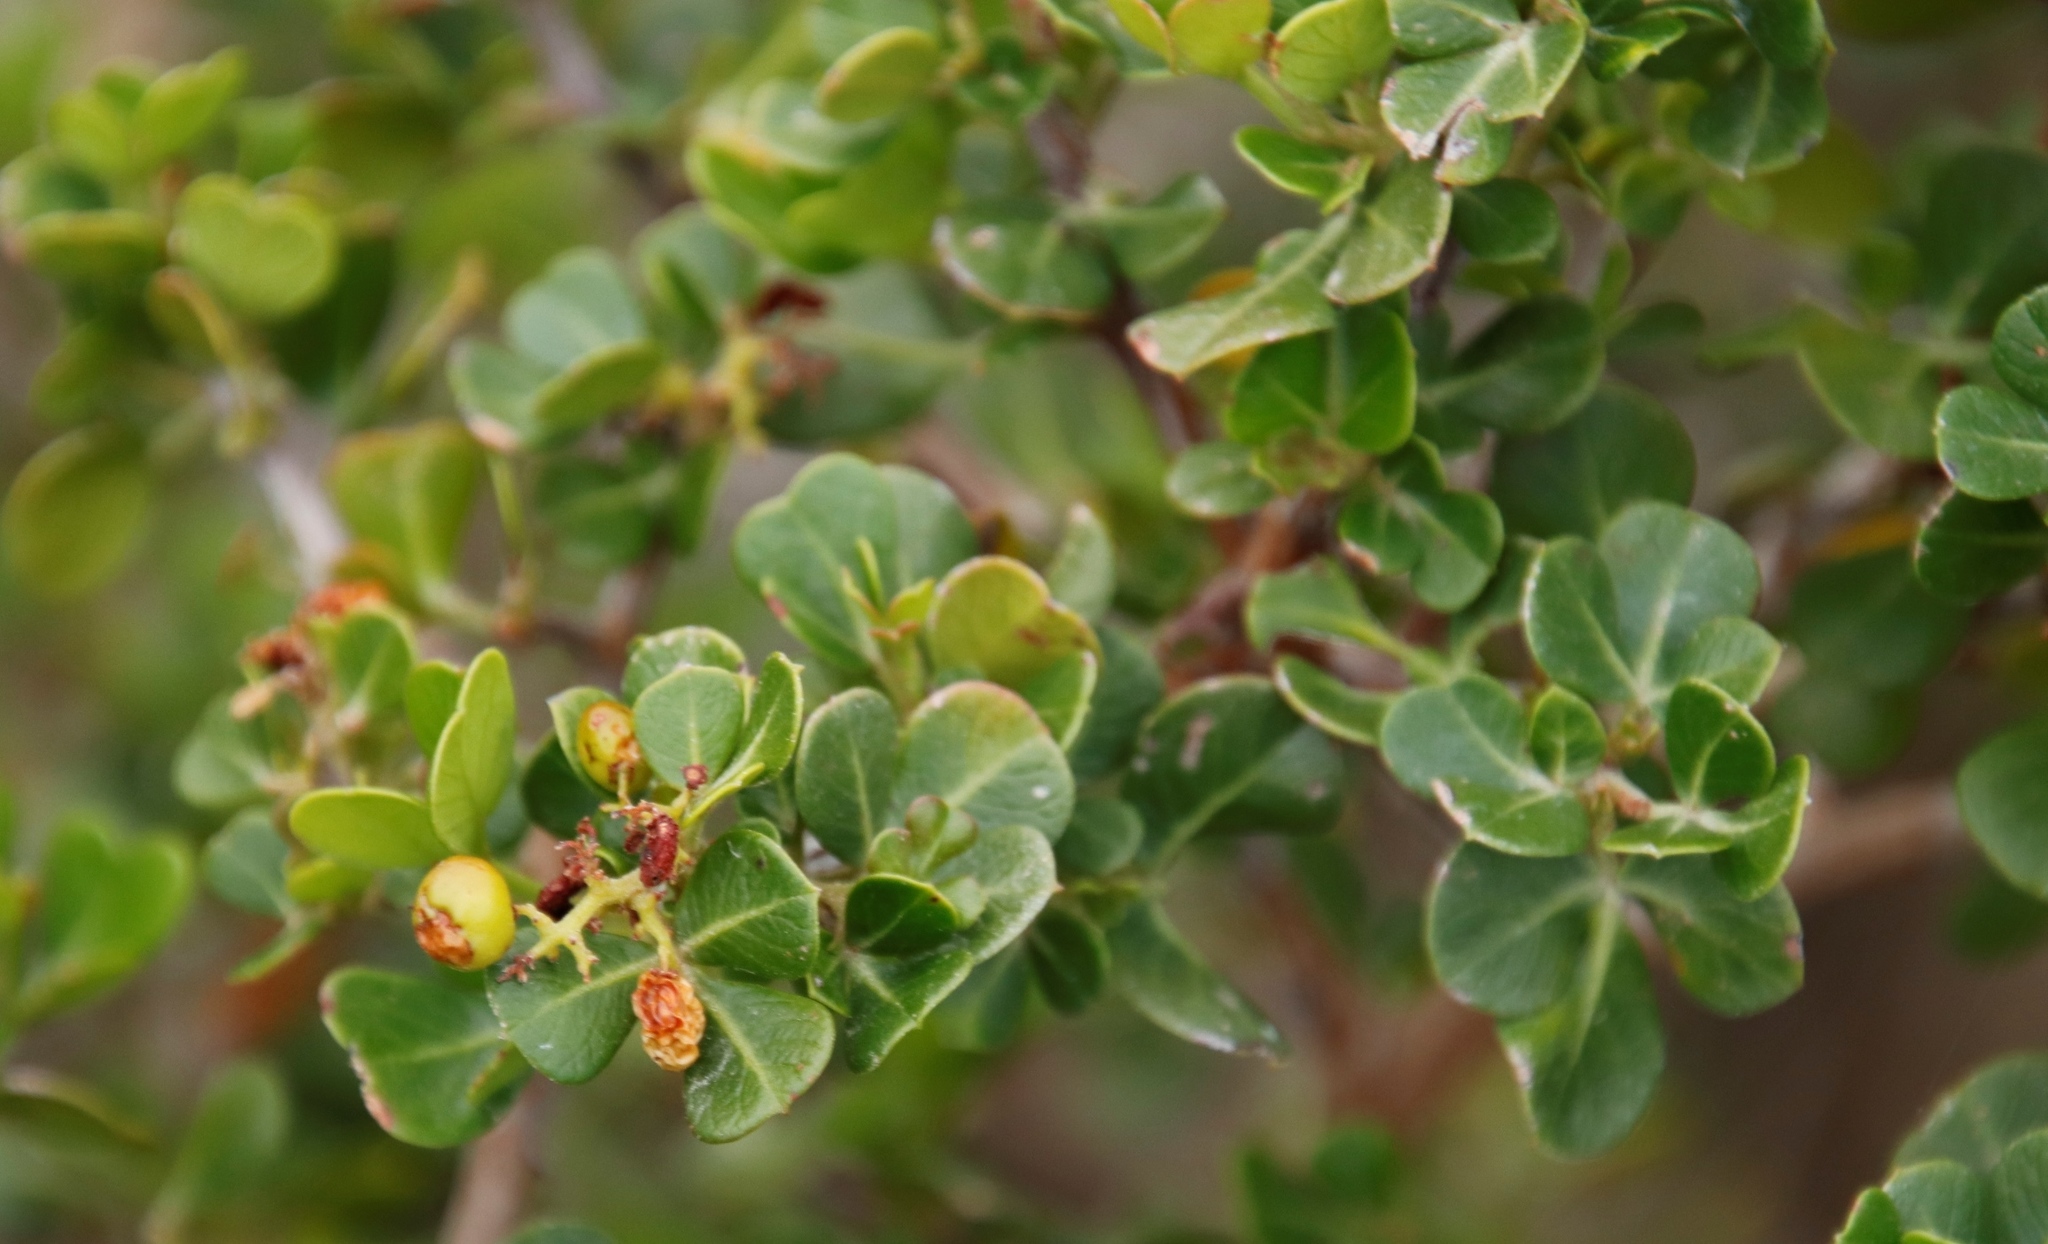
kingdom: Plantae
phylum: Tracheophyta
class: Magnoliopsida
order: Sapindales
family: Anacardiaceae
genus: Searsia
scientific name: Searsia glauca
